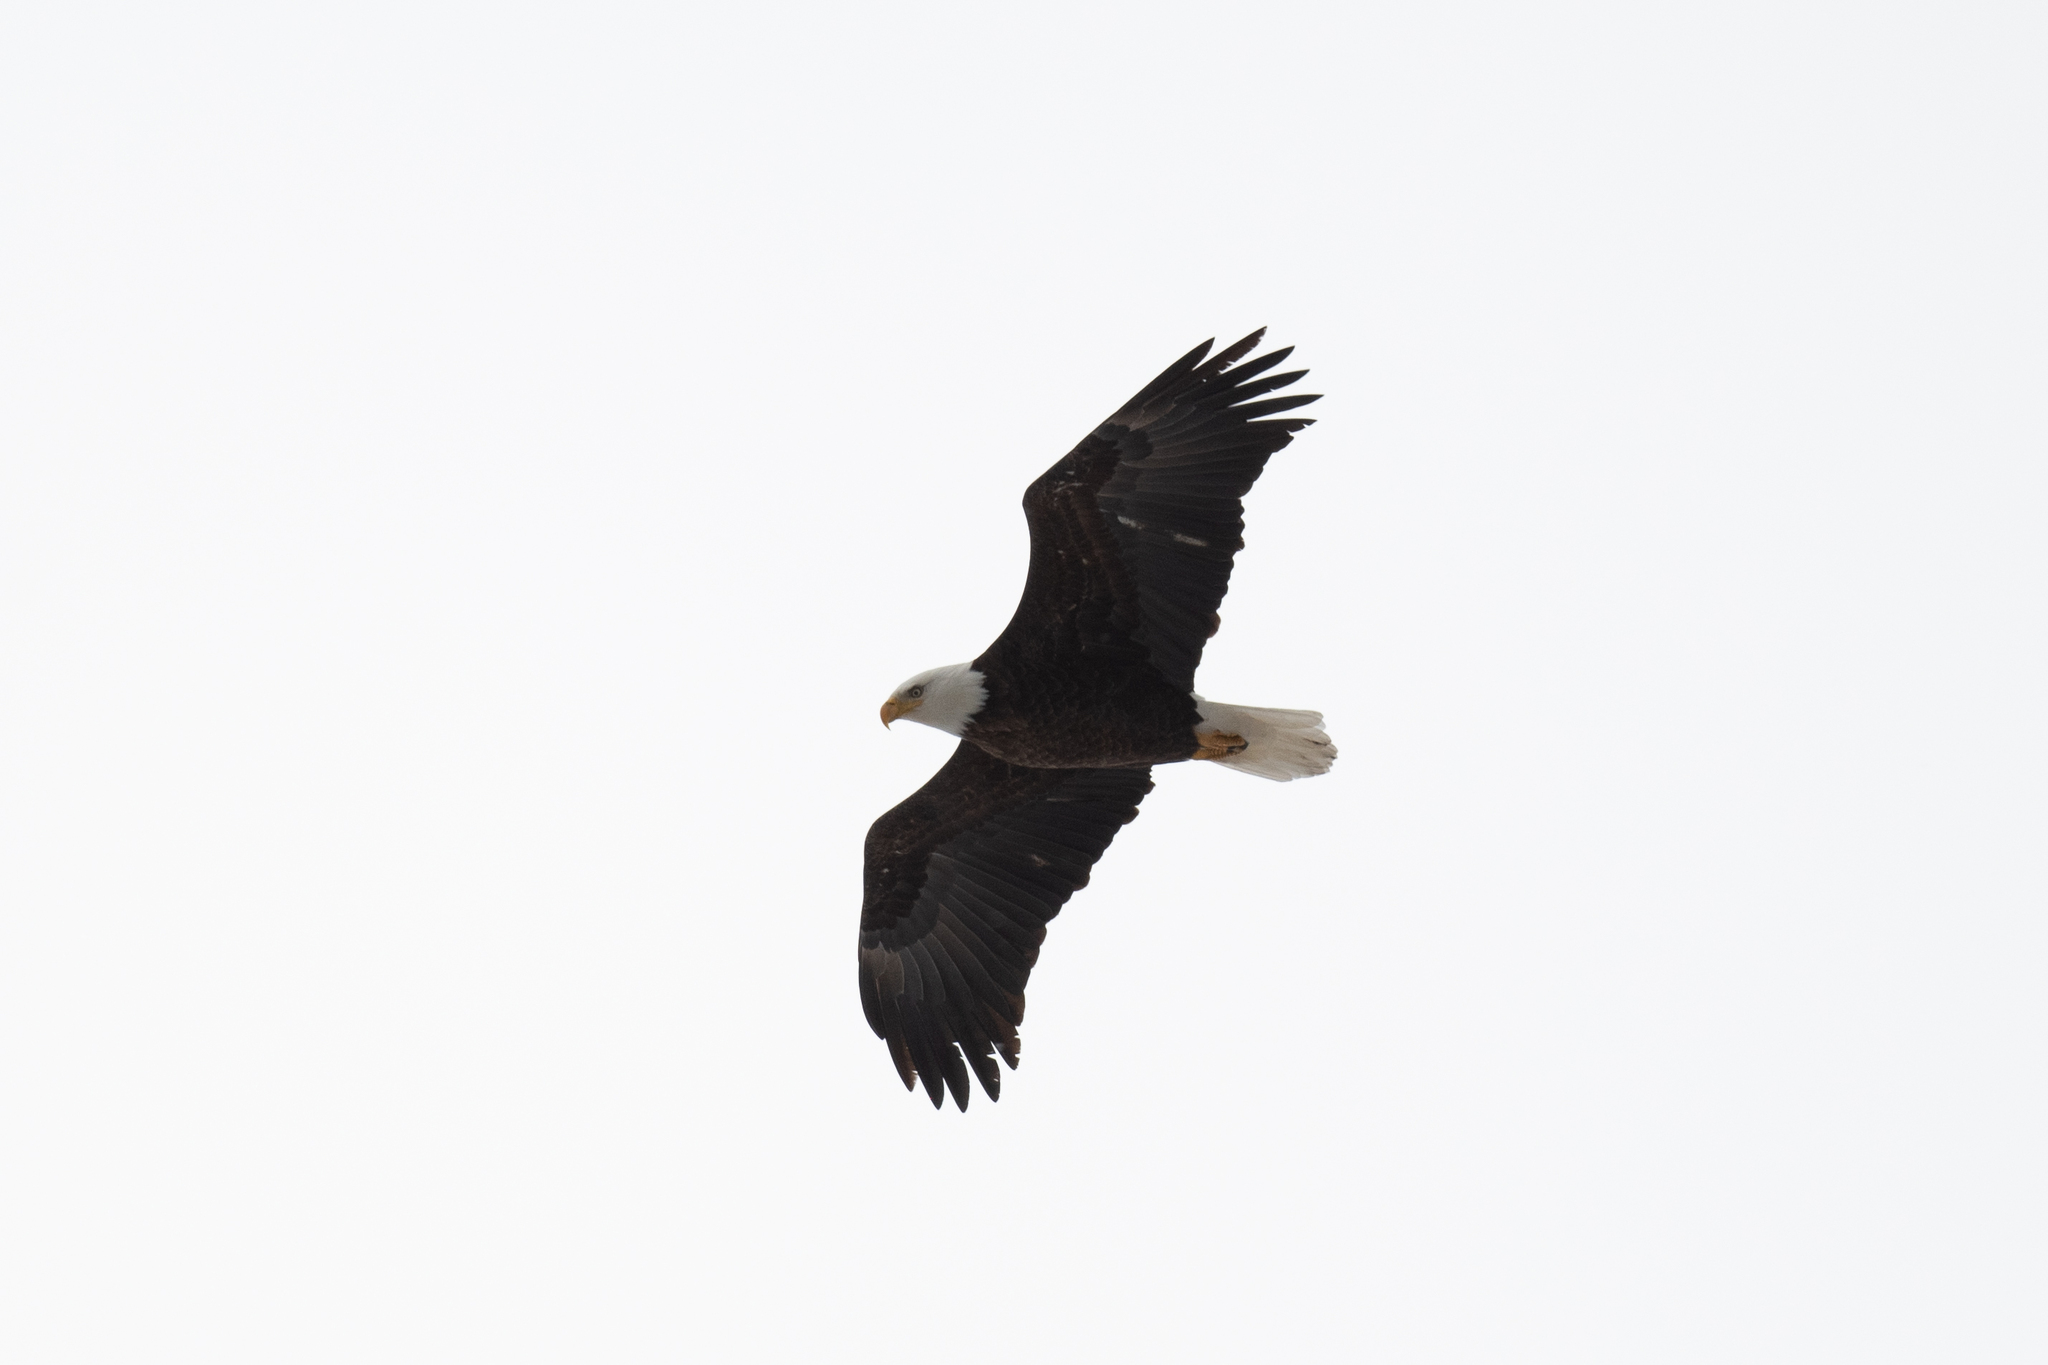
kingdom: Animalia
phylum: Chordata
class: Aves
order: Accipitriformes
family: Accipitridae
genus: Haliaeetus
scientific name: Haliaeetus leucocephalus
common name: Bald eagle
